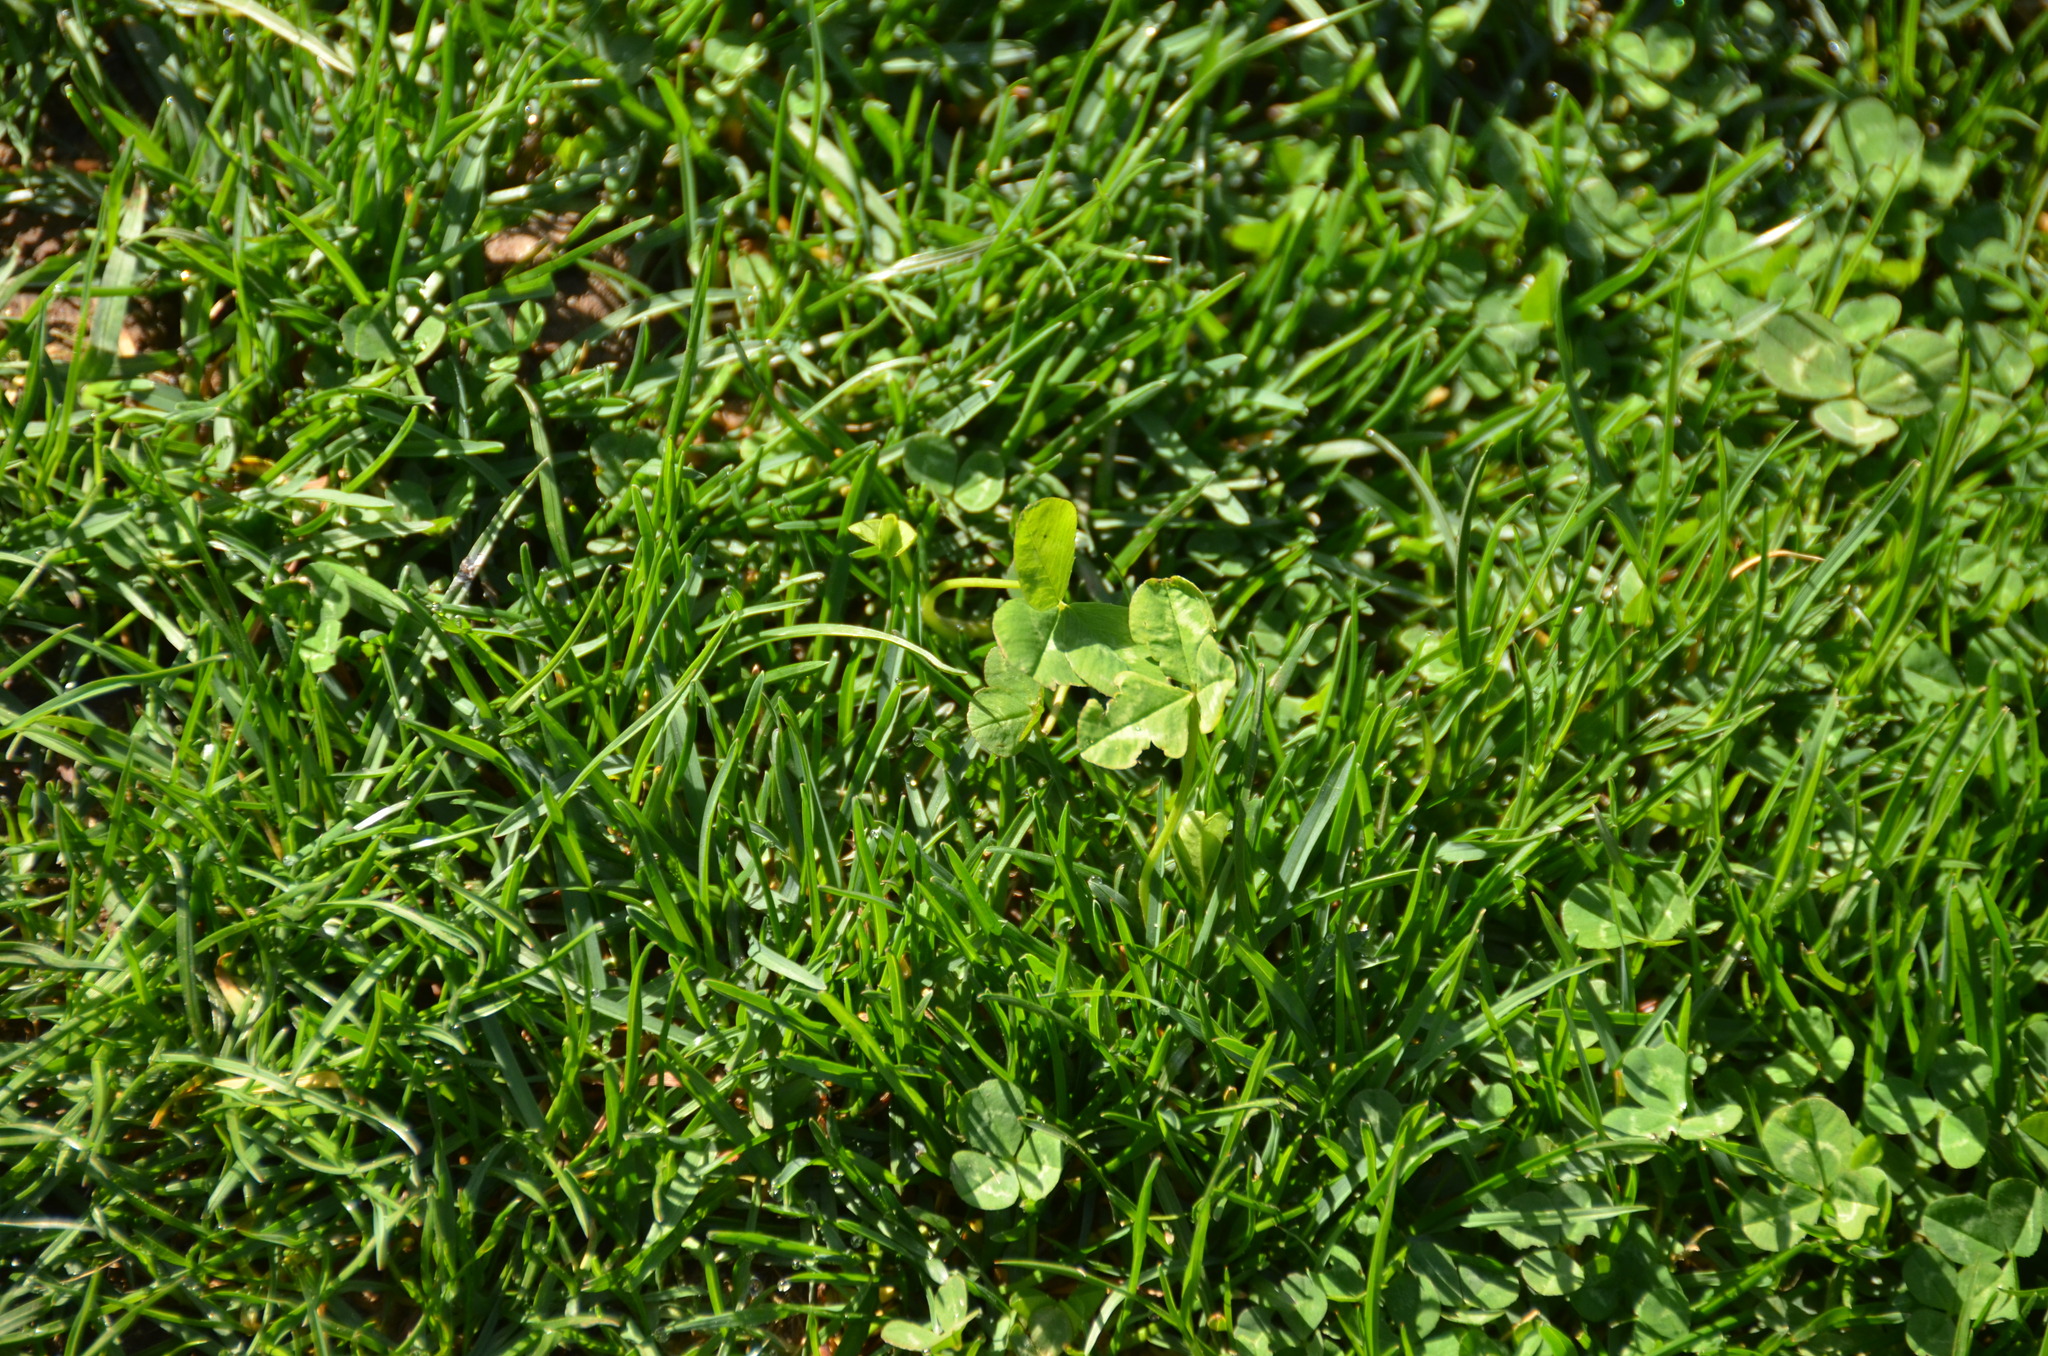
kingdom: Plantae
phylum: Tracheophyta
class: Magnoliopsida
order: Fabales
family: Fabaceae
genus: Trifolium
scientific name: Trifolium repens
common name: White clover
